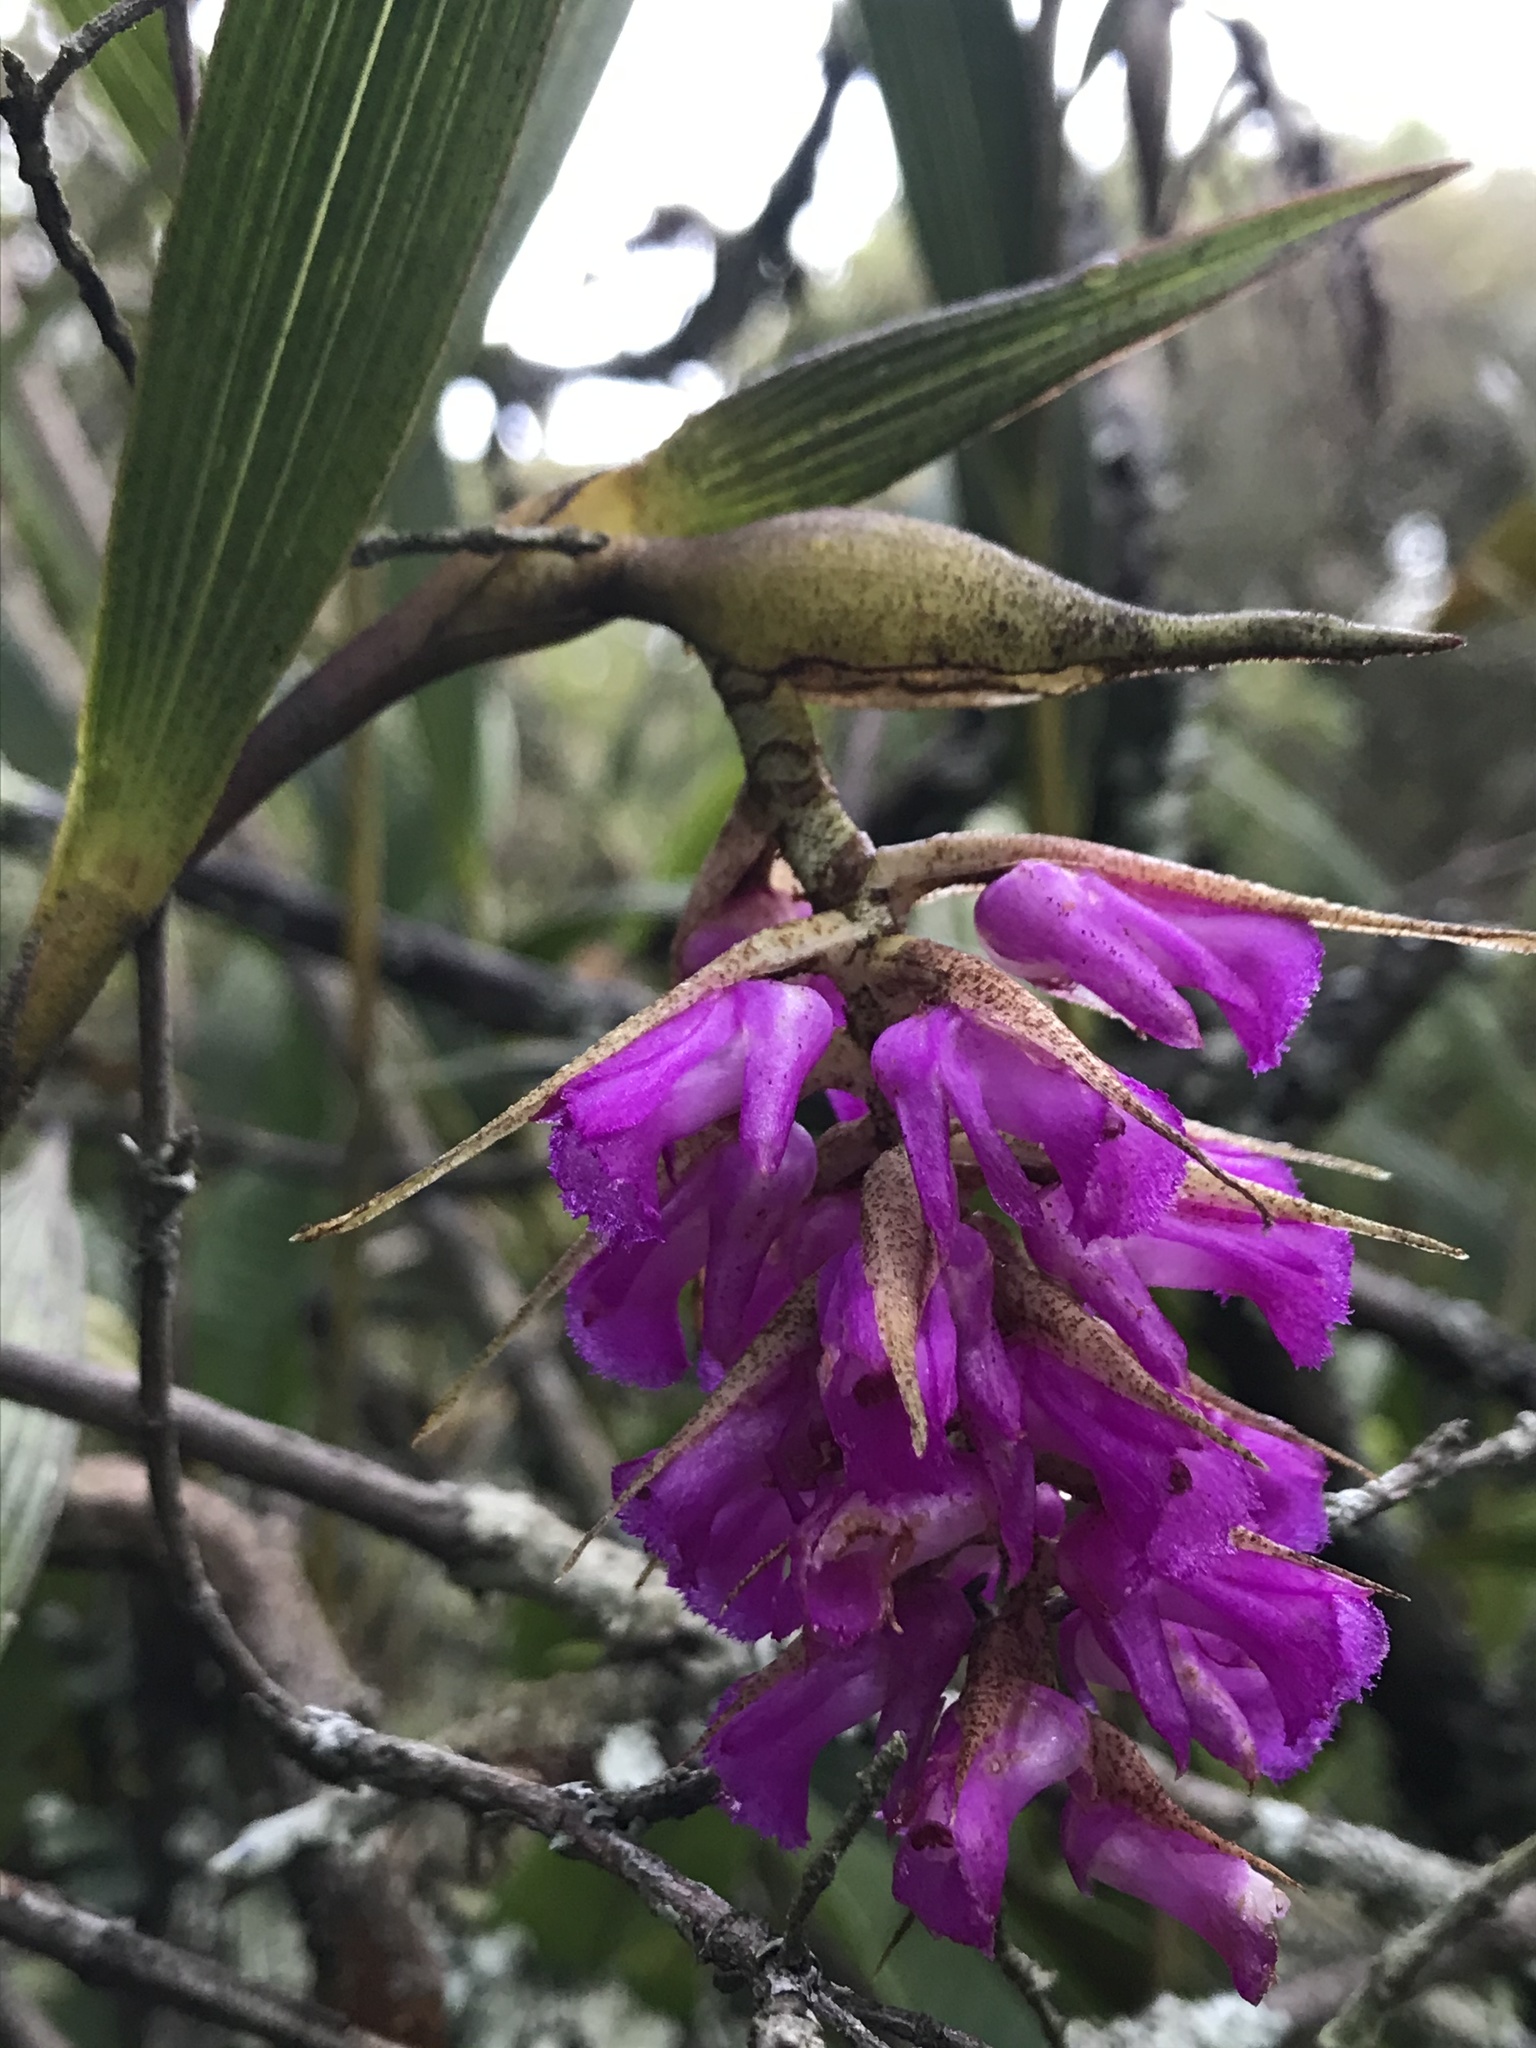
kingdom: Plantae
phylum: Tracheophyta
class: Liliopsida
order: Asparagales
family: Orchidaceae
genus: Elleanthus
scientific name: Elleanthus maculatus
